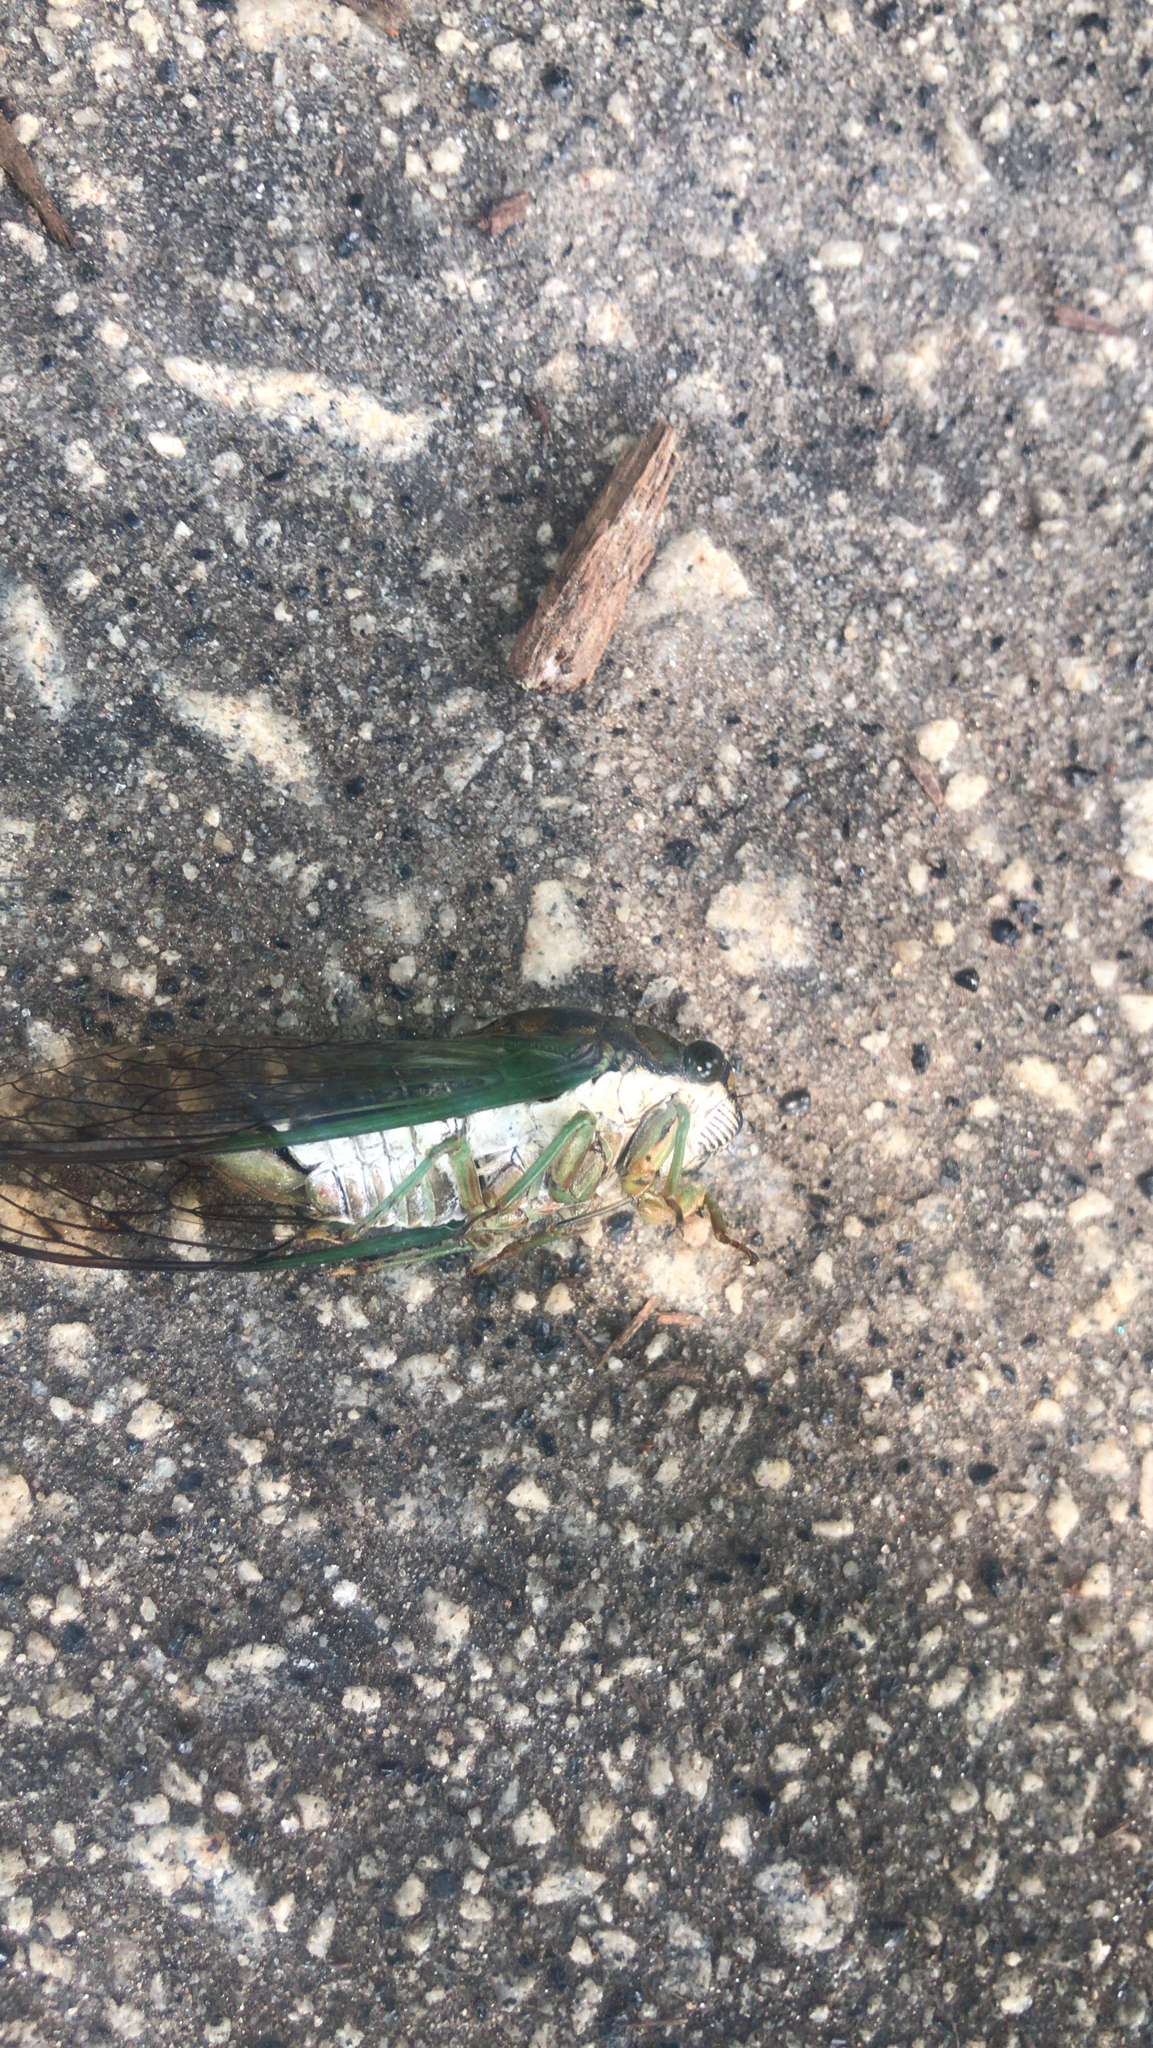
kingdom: Animalia
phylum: Arthropoda
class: Insecta
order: Hemiptera
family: Cicadidae
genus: Neotibicen
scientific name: Neotibicen tibicen
